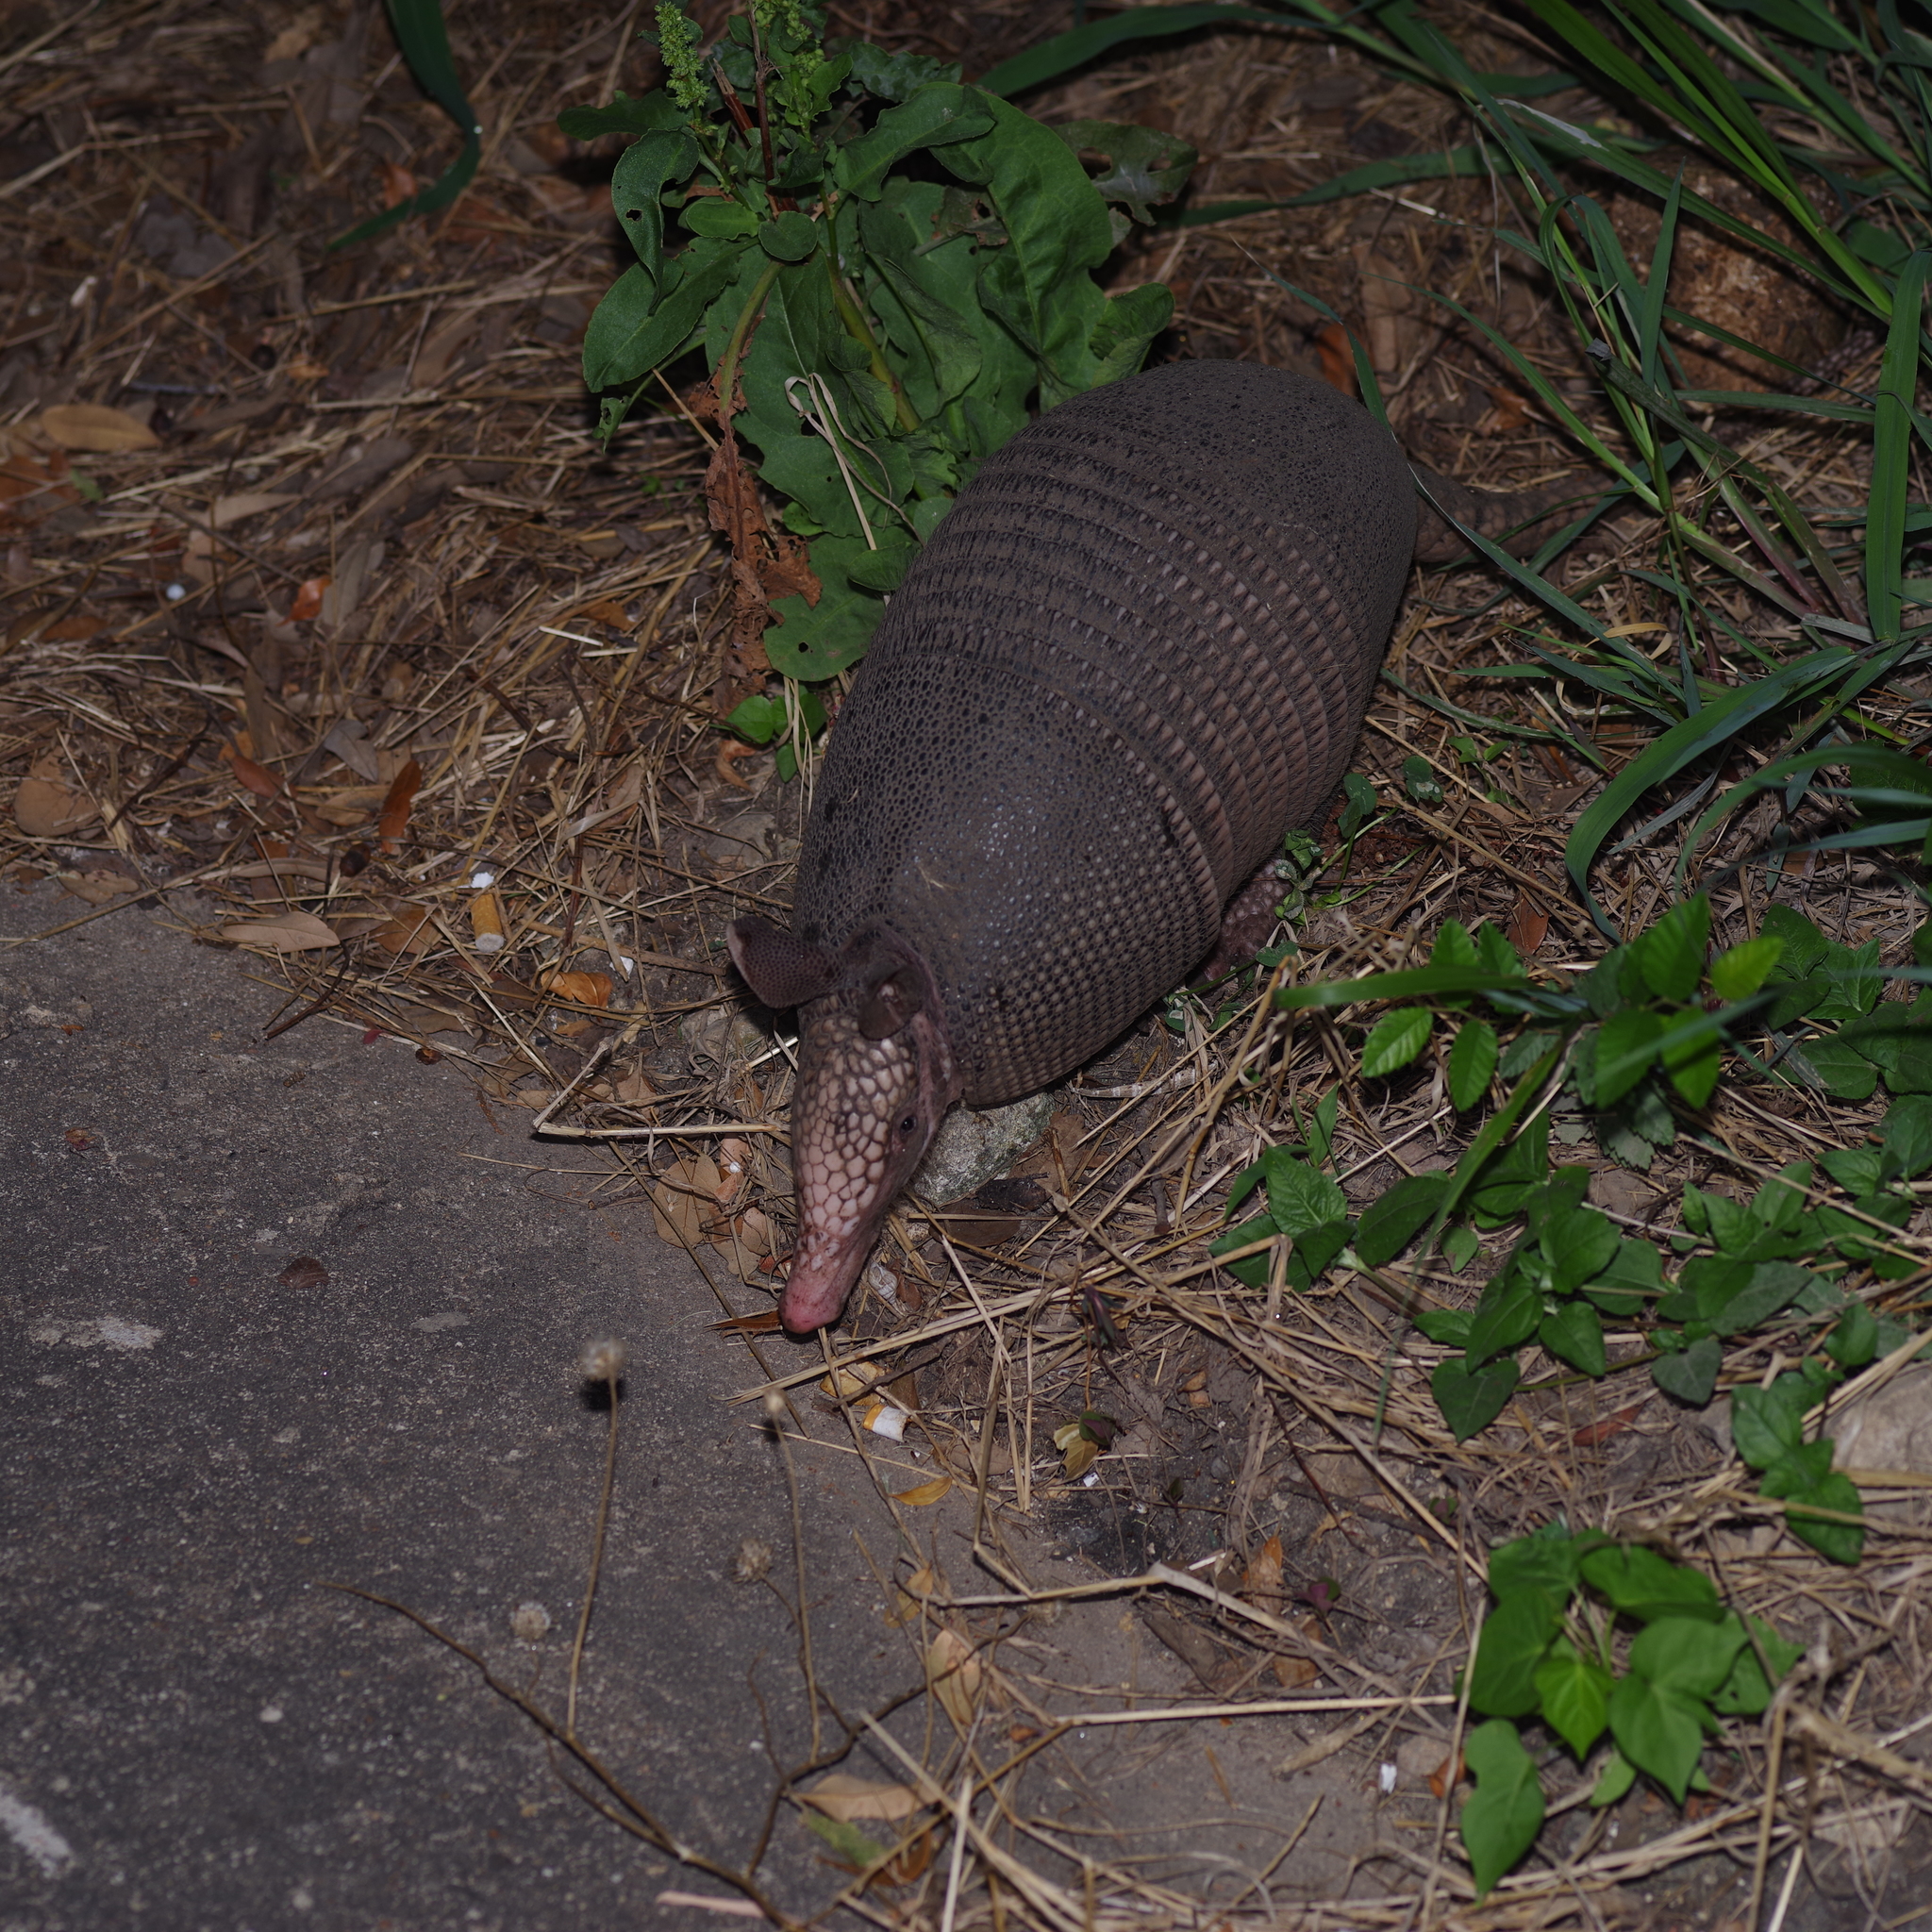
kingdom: Animalia
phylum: Chordata
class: Mammalia
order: Cingulata
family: Dasypodidae
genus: Dasypus
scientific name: Dasypus novemcinctus
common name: Nine-banded armadillo
